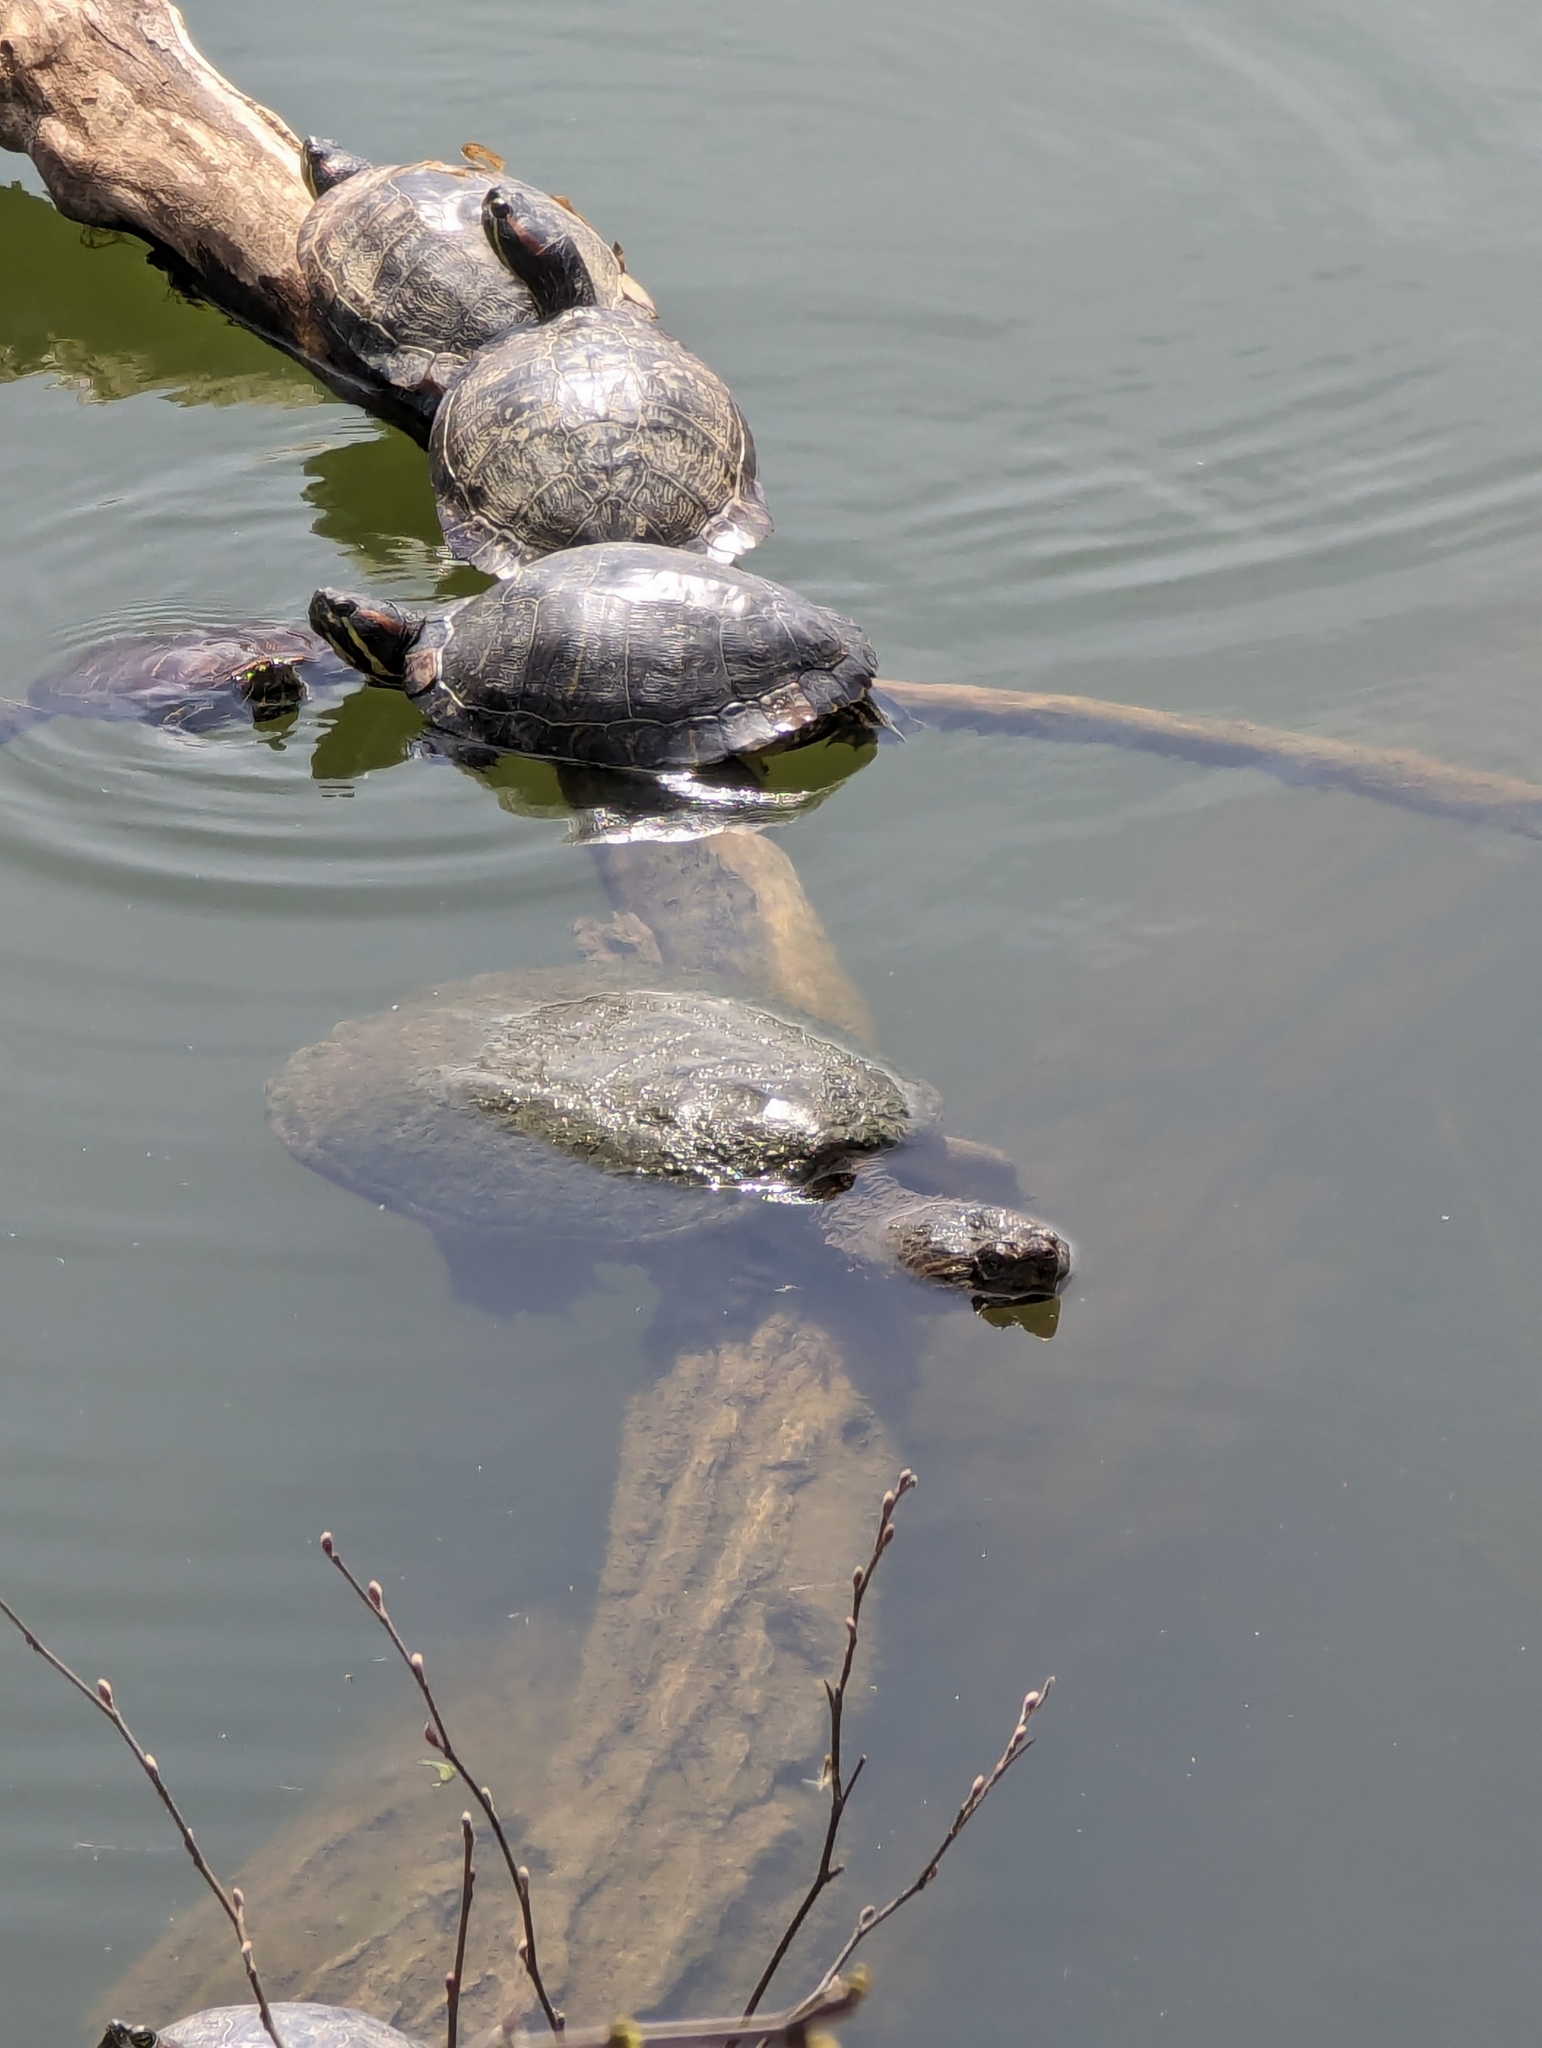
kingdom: Animalia
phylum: Chordata
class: Testudines
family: Chelydridae
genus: Chelydra
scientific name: Chelydra serpentina
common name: Common snapping turtle
